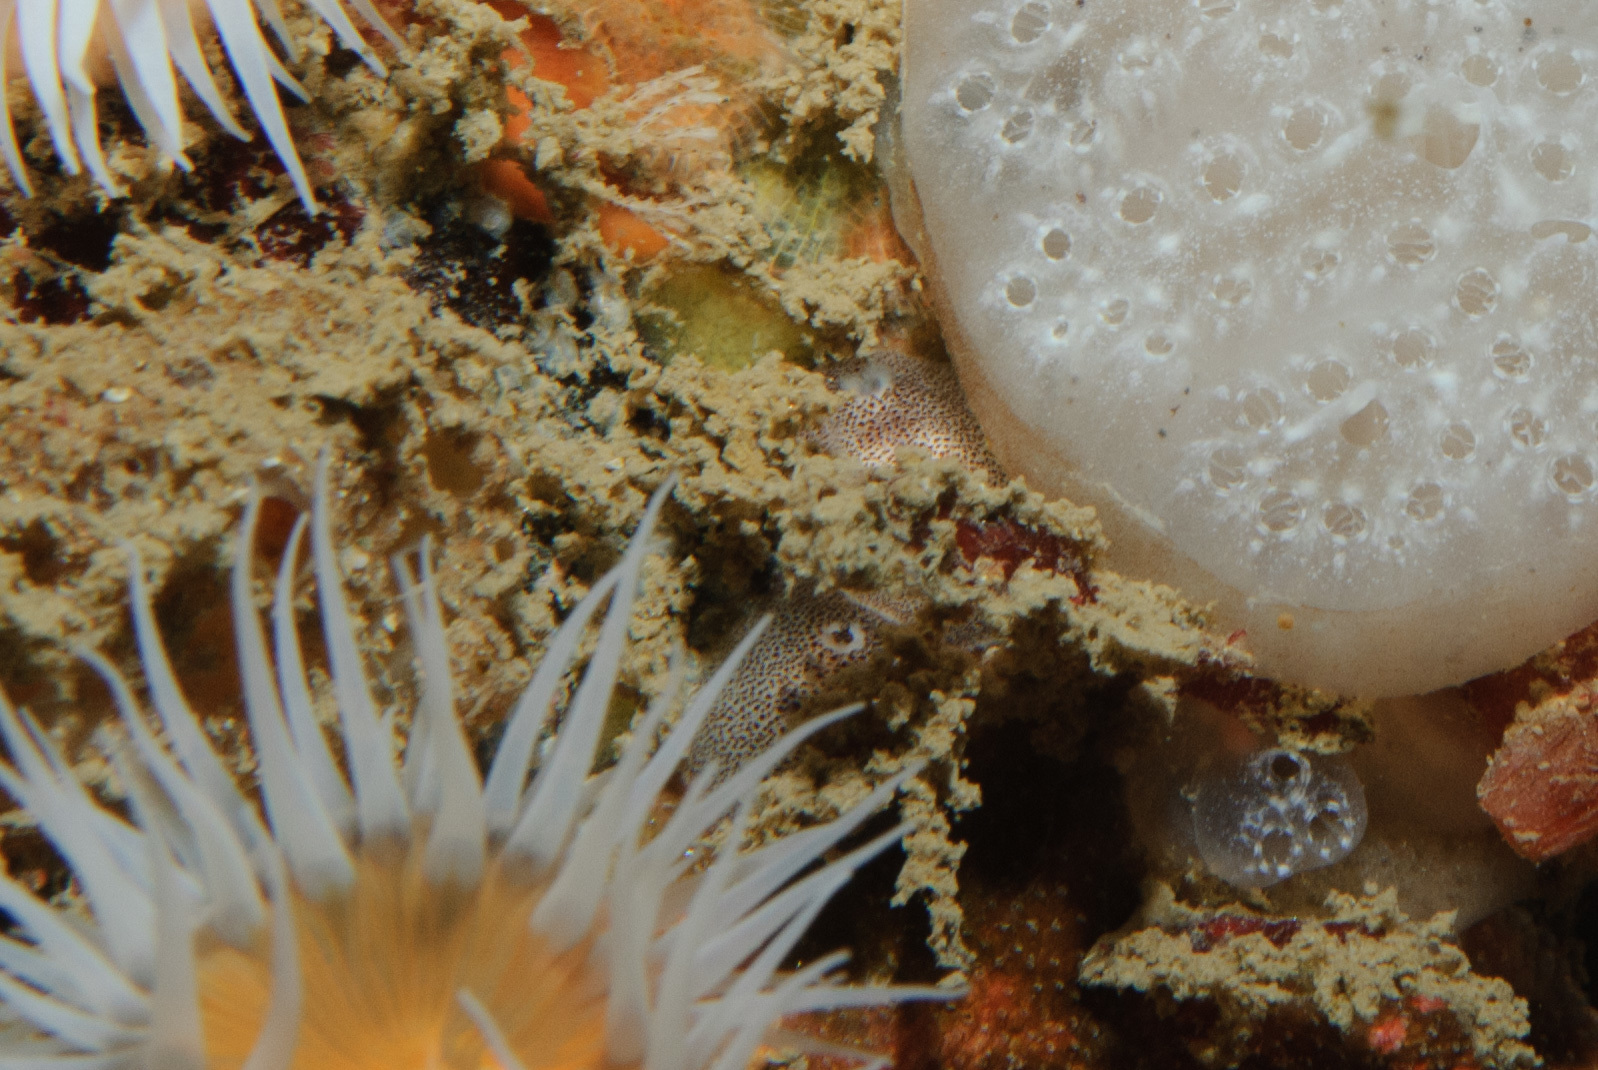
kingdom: Animalia
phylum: Mollusca
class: Gastropoda
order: Nudibranchia
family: Onchidorididae
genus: Atalodoris
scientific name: Atalodoris pusilla
